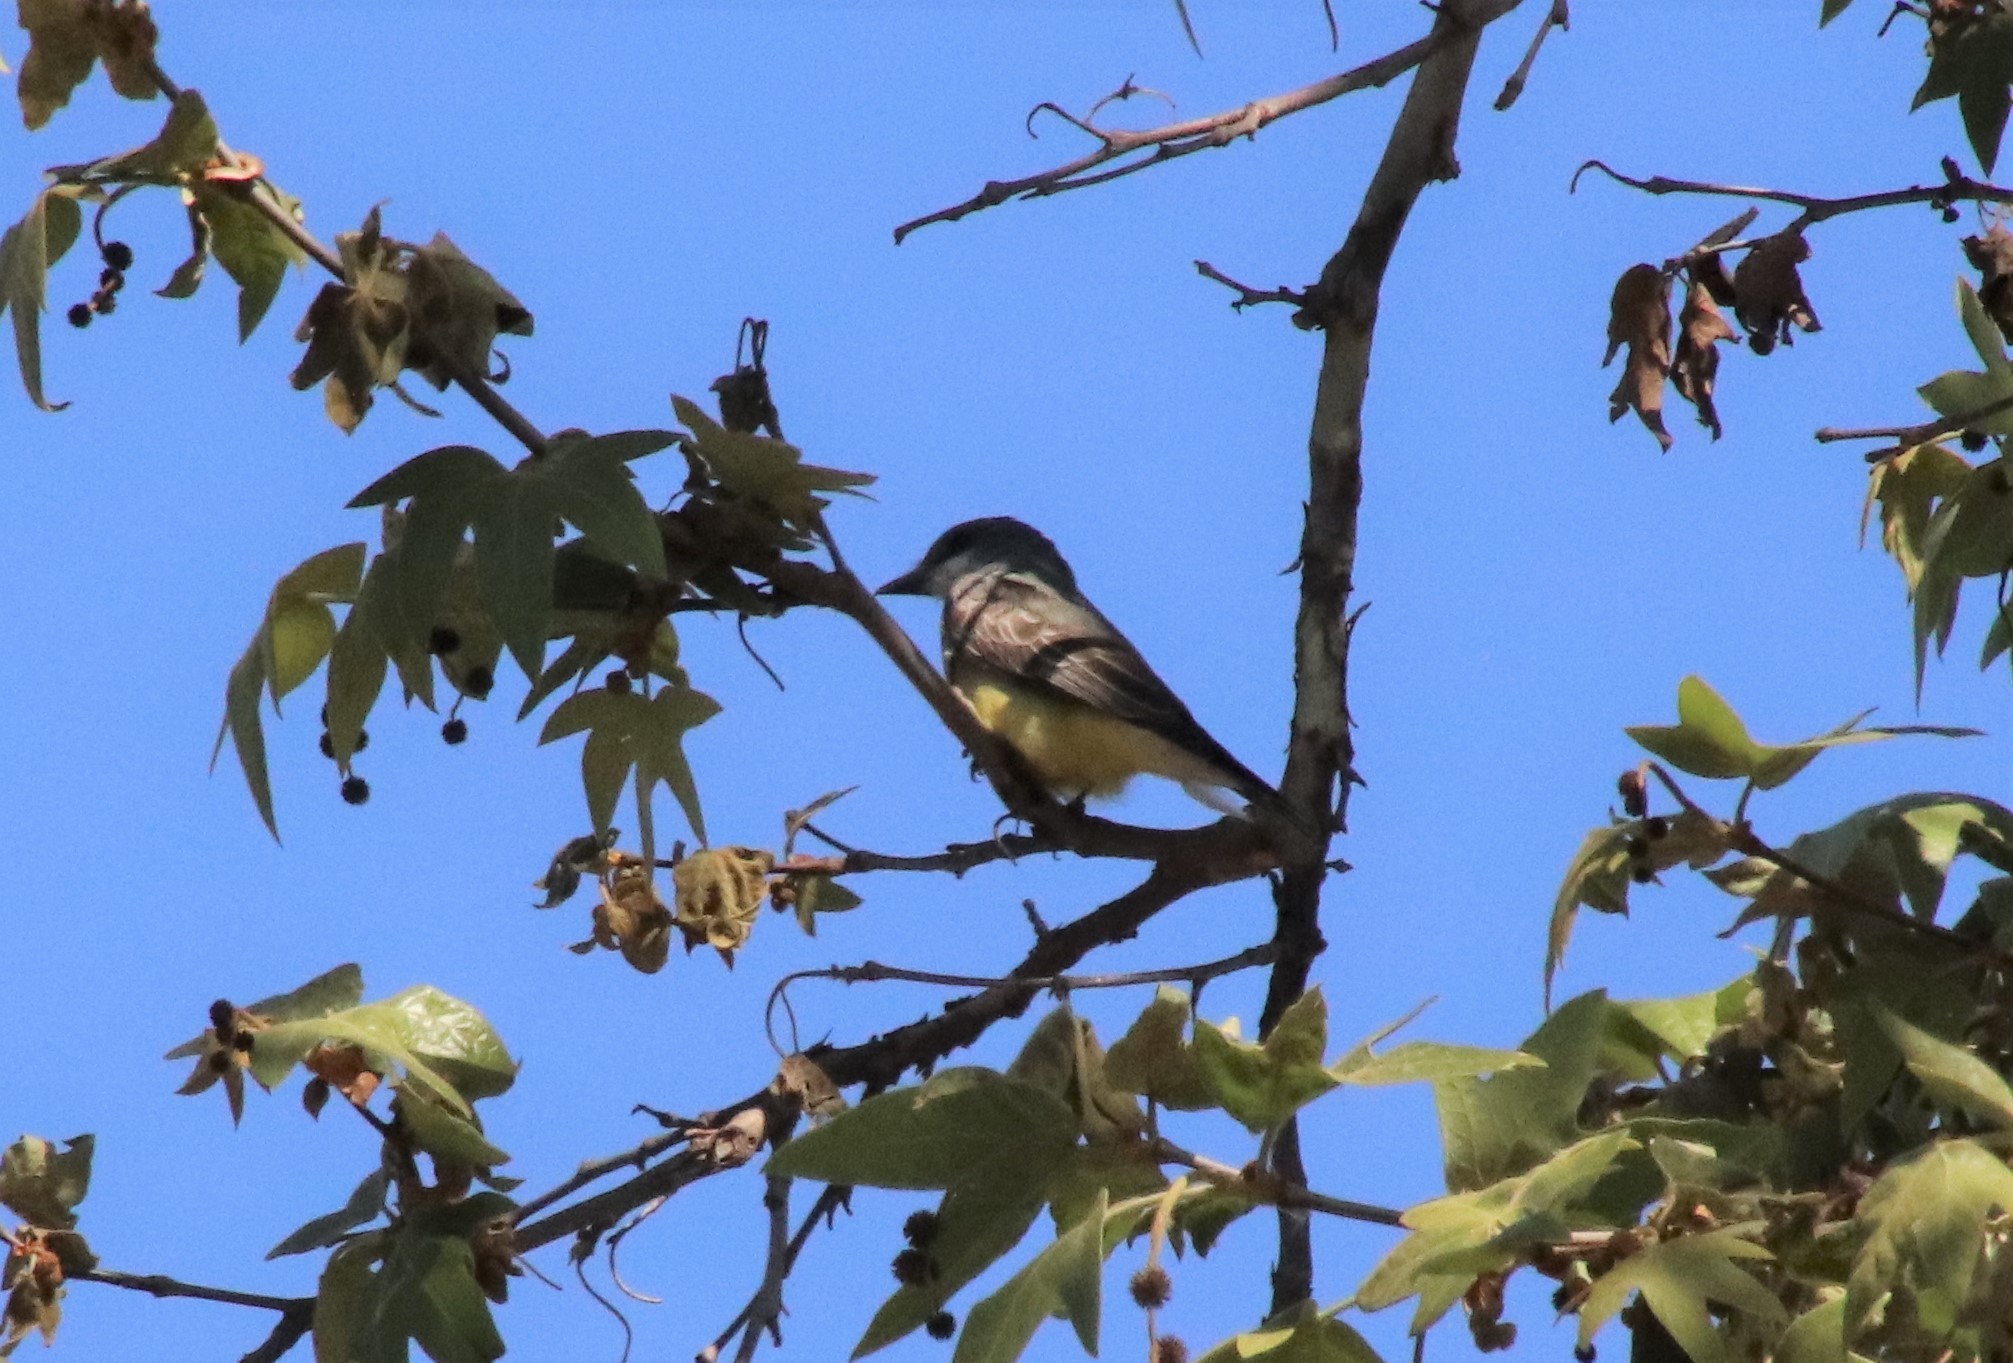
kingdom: Animalia
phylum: Chordata
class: Aves
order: Passeriformes
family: Tyrannidae
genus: Tyrannus
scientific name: Tyrannus vociferans
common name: Cassin's kingbird
